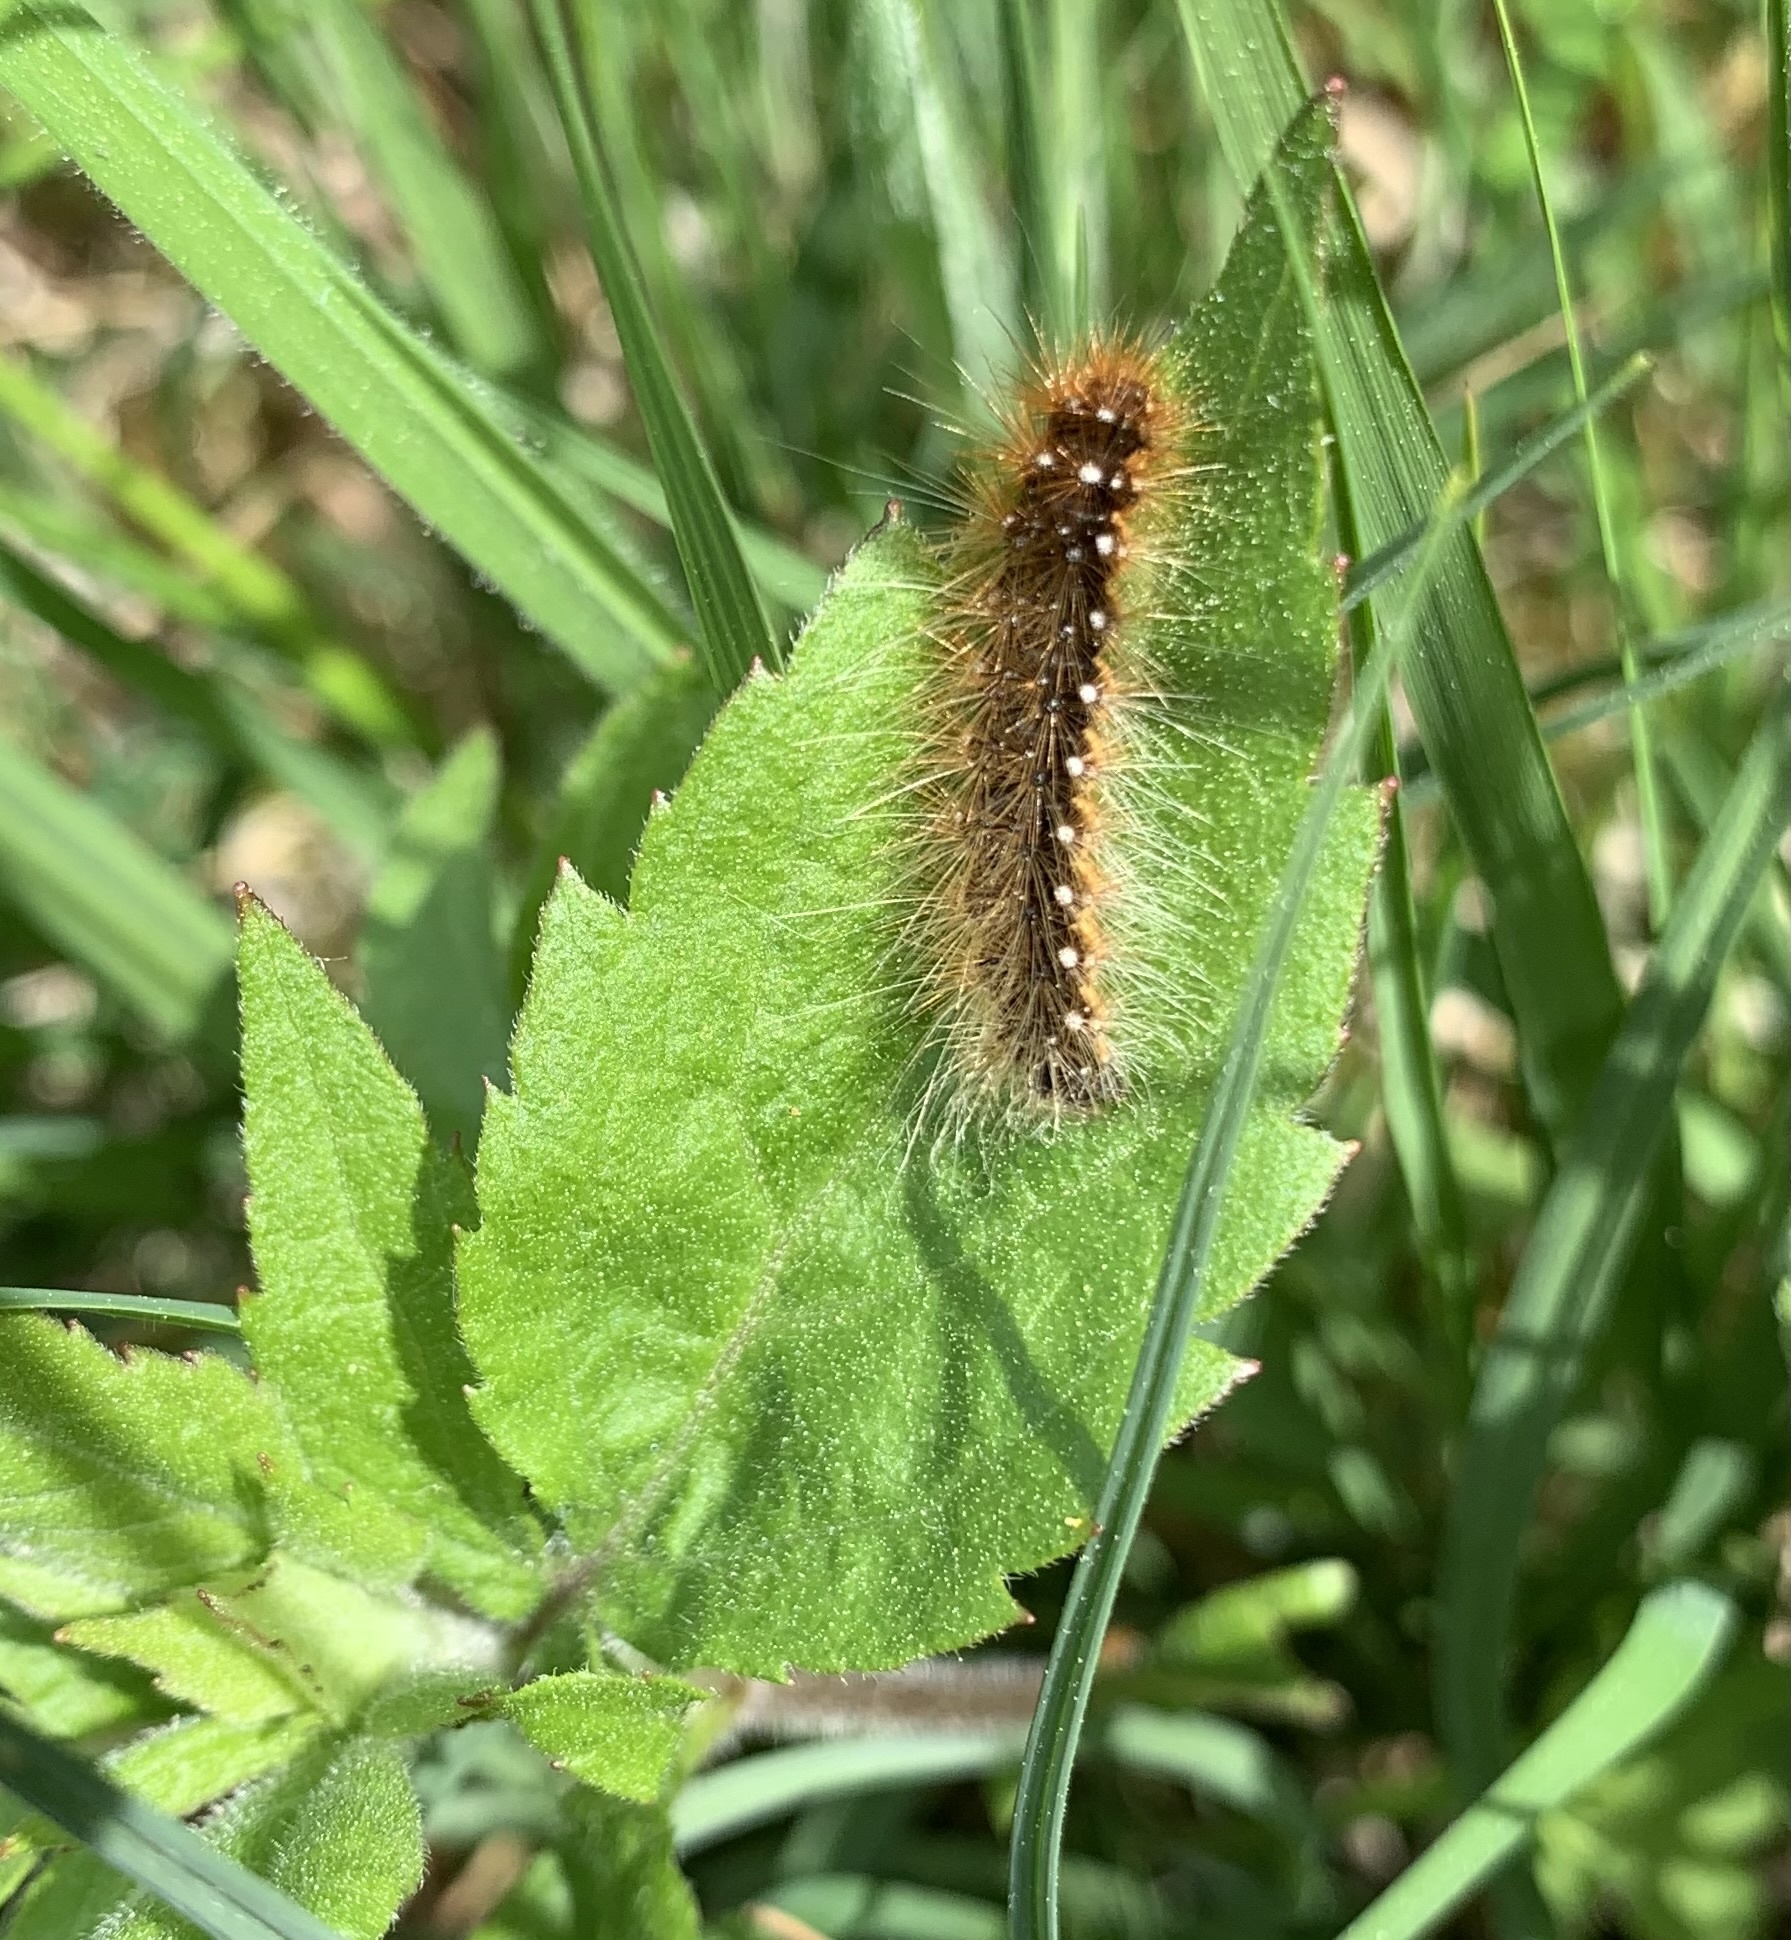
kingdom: Animalia
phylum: Arthropoda
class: Insecta
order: Lepidoptera
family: Erebidae
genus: Arctia
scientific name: Arctia caja
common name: Garden tiger
